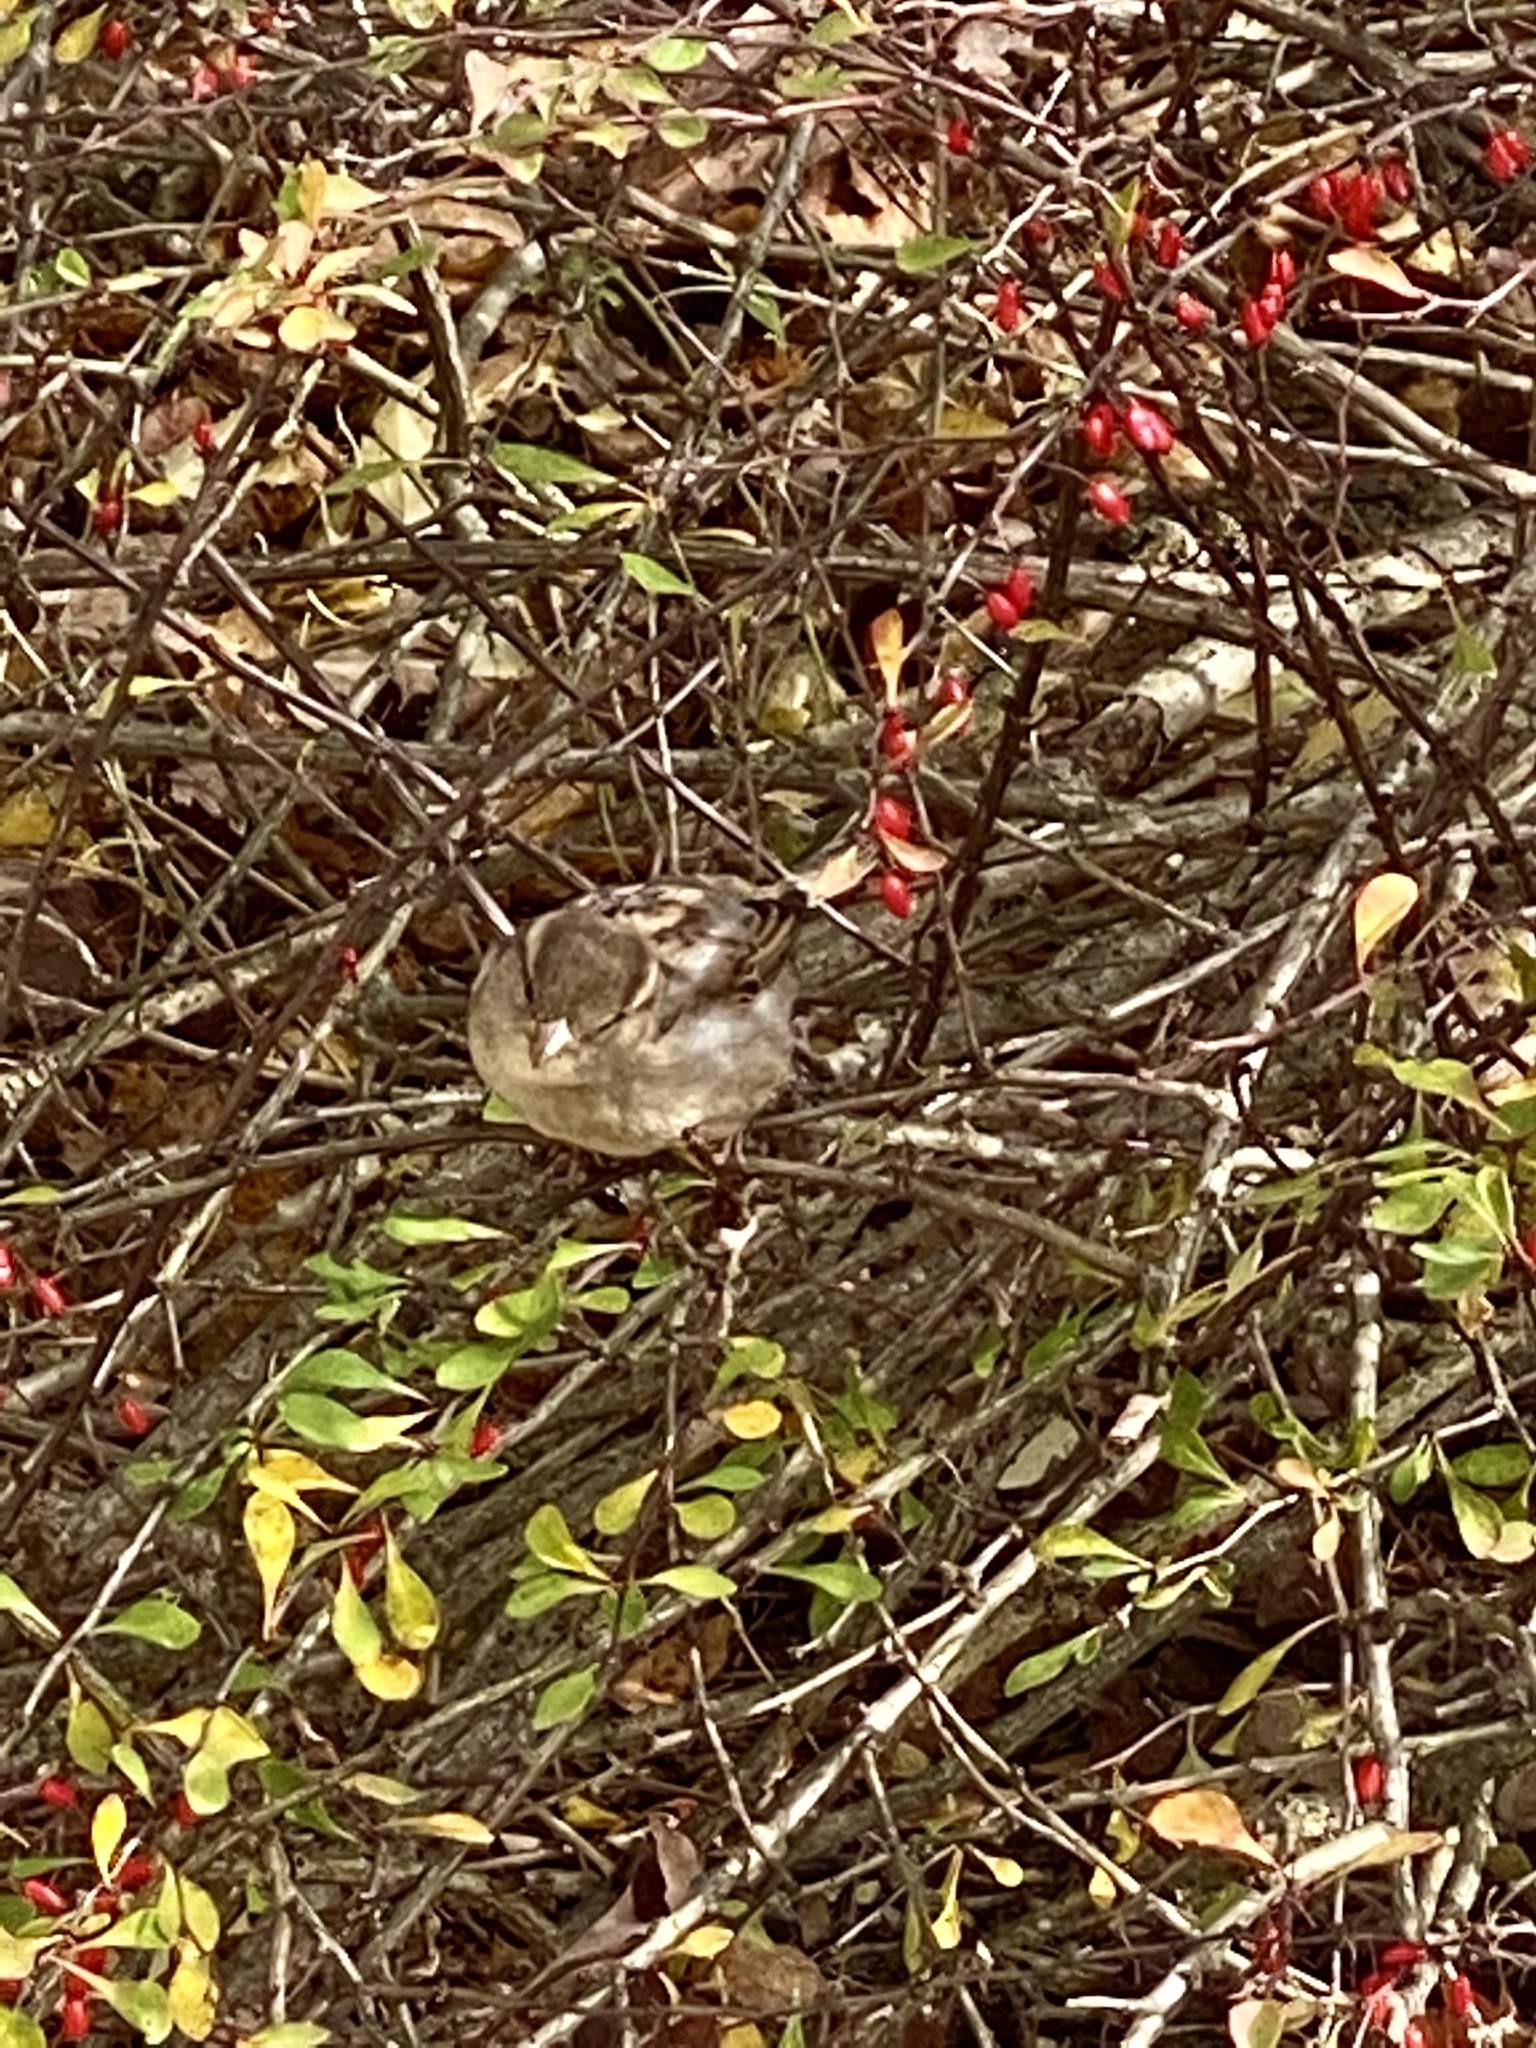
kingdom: Animalia
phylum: Chordata
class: Aves
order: Passeriformes
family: Passeridae
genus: Passer
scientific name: Passer domesticus
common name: House sparrow
